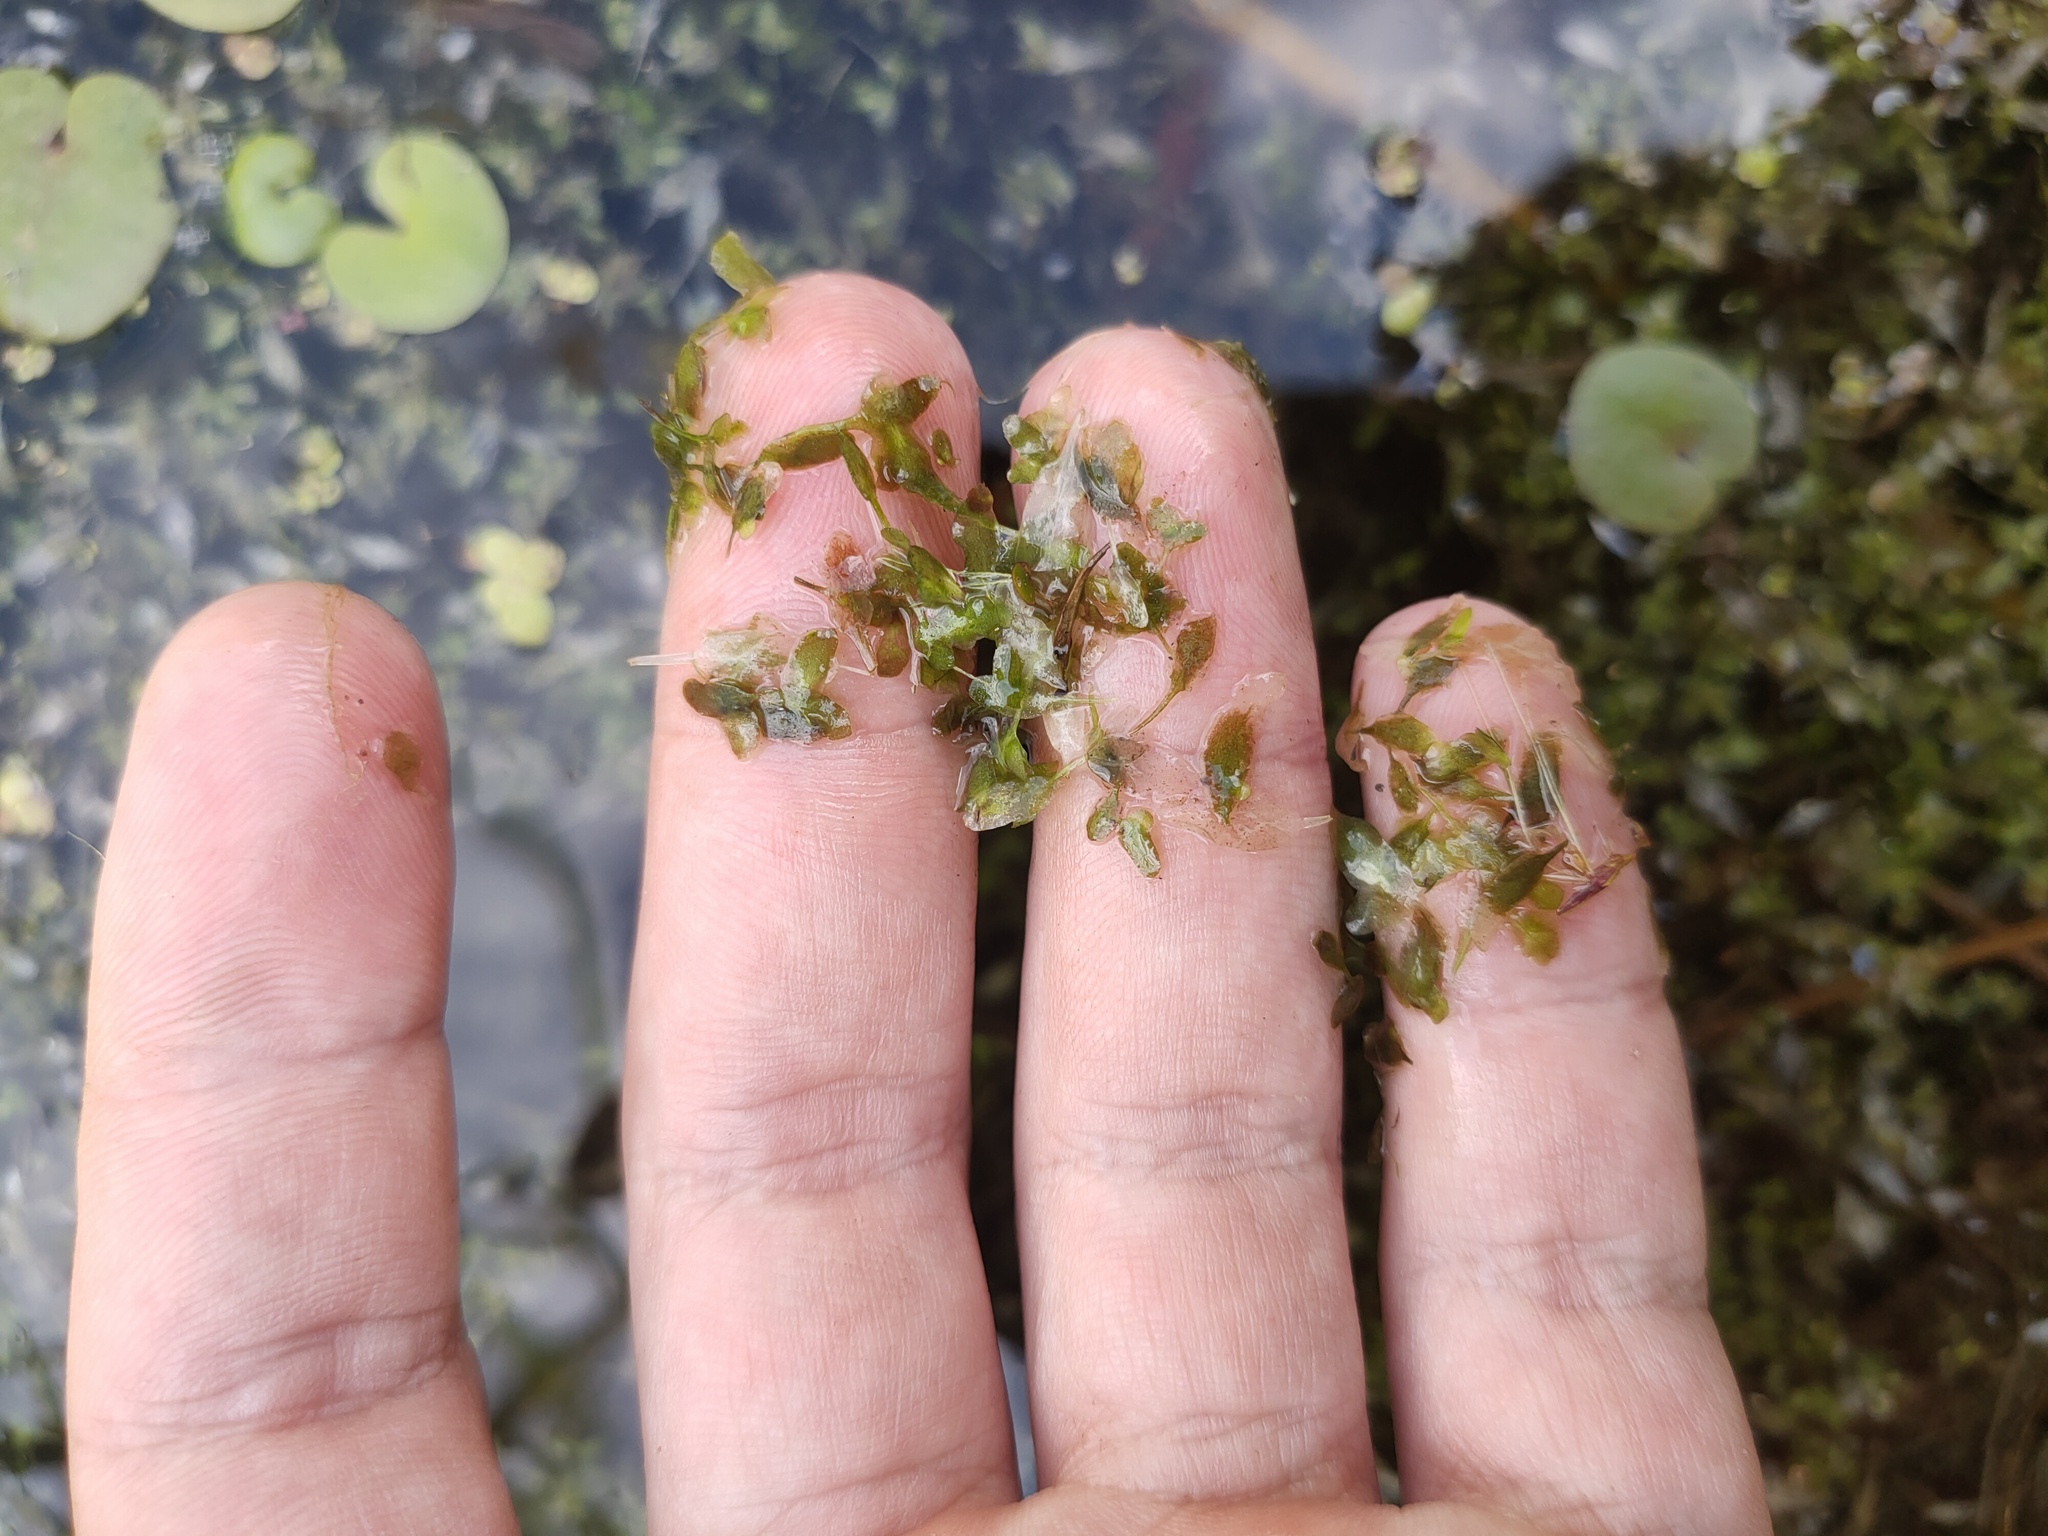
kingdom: Plantae
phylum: Tracheophyta
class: Liliopsida
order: Alismatales
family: Araceae
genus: Lemna
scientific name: Lemna trisulca
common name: Ivy-leaved duckweed
